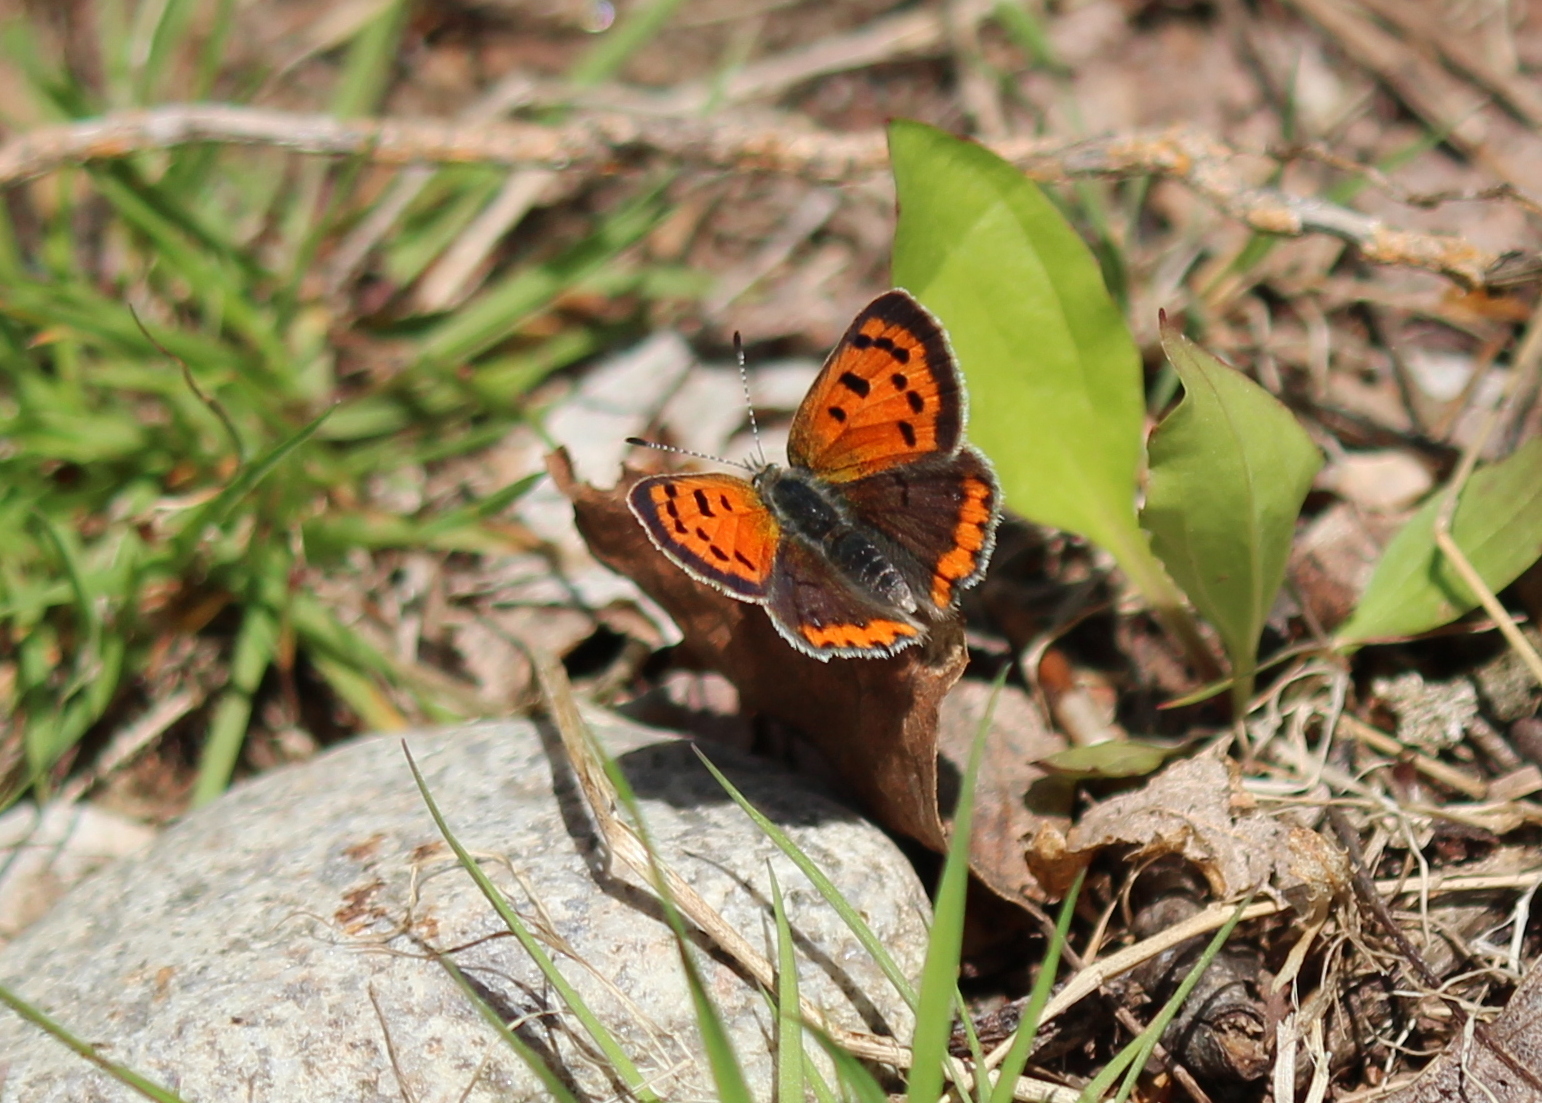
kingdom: Animalia
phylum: Arthropoda
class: Insecta
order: Lepidoptera
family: Lycaenidae
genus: Lycaena
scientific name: Lycaena hypophlaeas
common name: American copper
